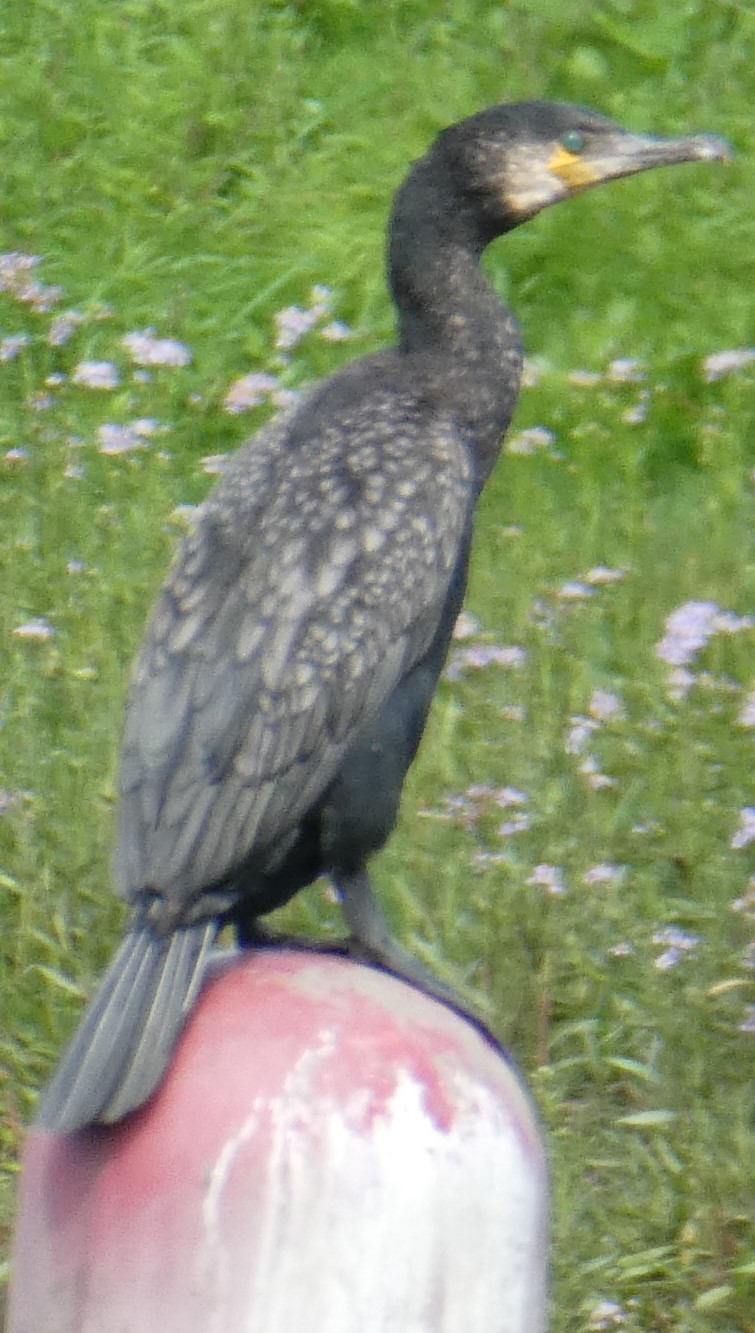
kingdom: Animalia
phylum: Chordata
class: Aves
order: Suliformes
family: Phalacrocoracidae
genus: Phalacrocorax
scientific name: Phalacrocorax carbo
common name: Great cormorant
